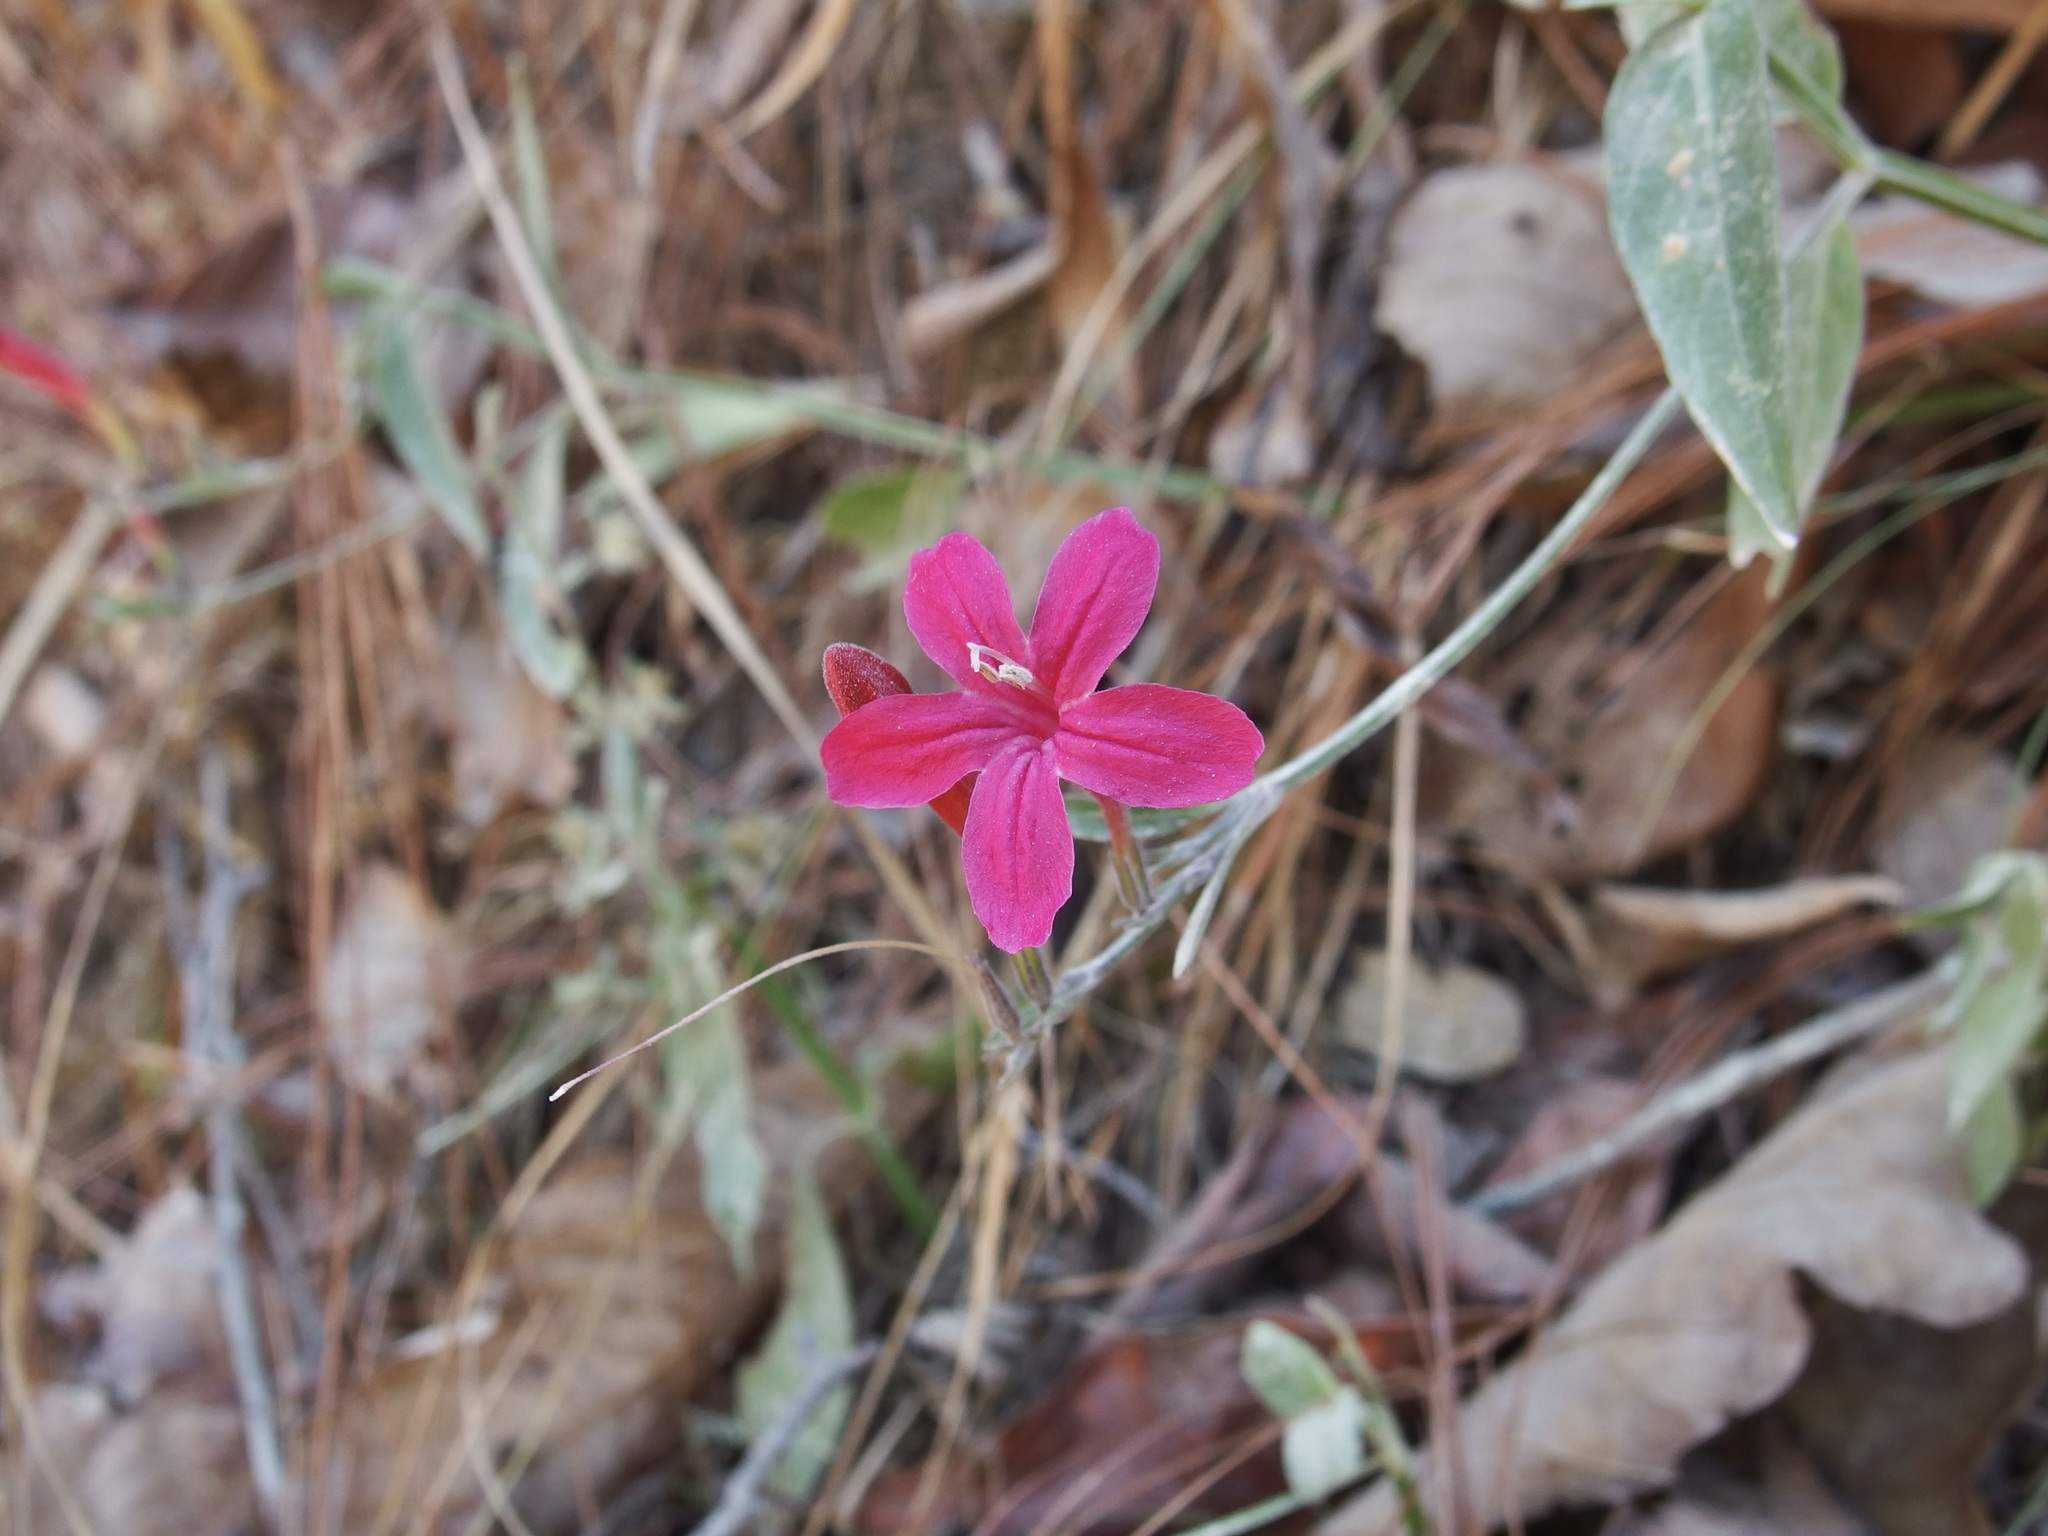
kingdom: Plantae
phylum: Tracheophyta
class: Magnoliopsida
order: Lamiales
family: Acanthaceae
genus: Ruellia
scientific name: Ruellia matudae
